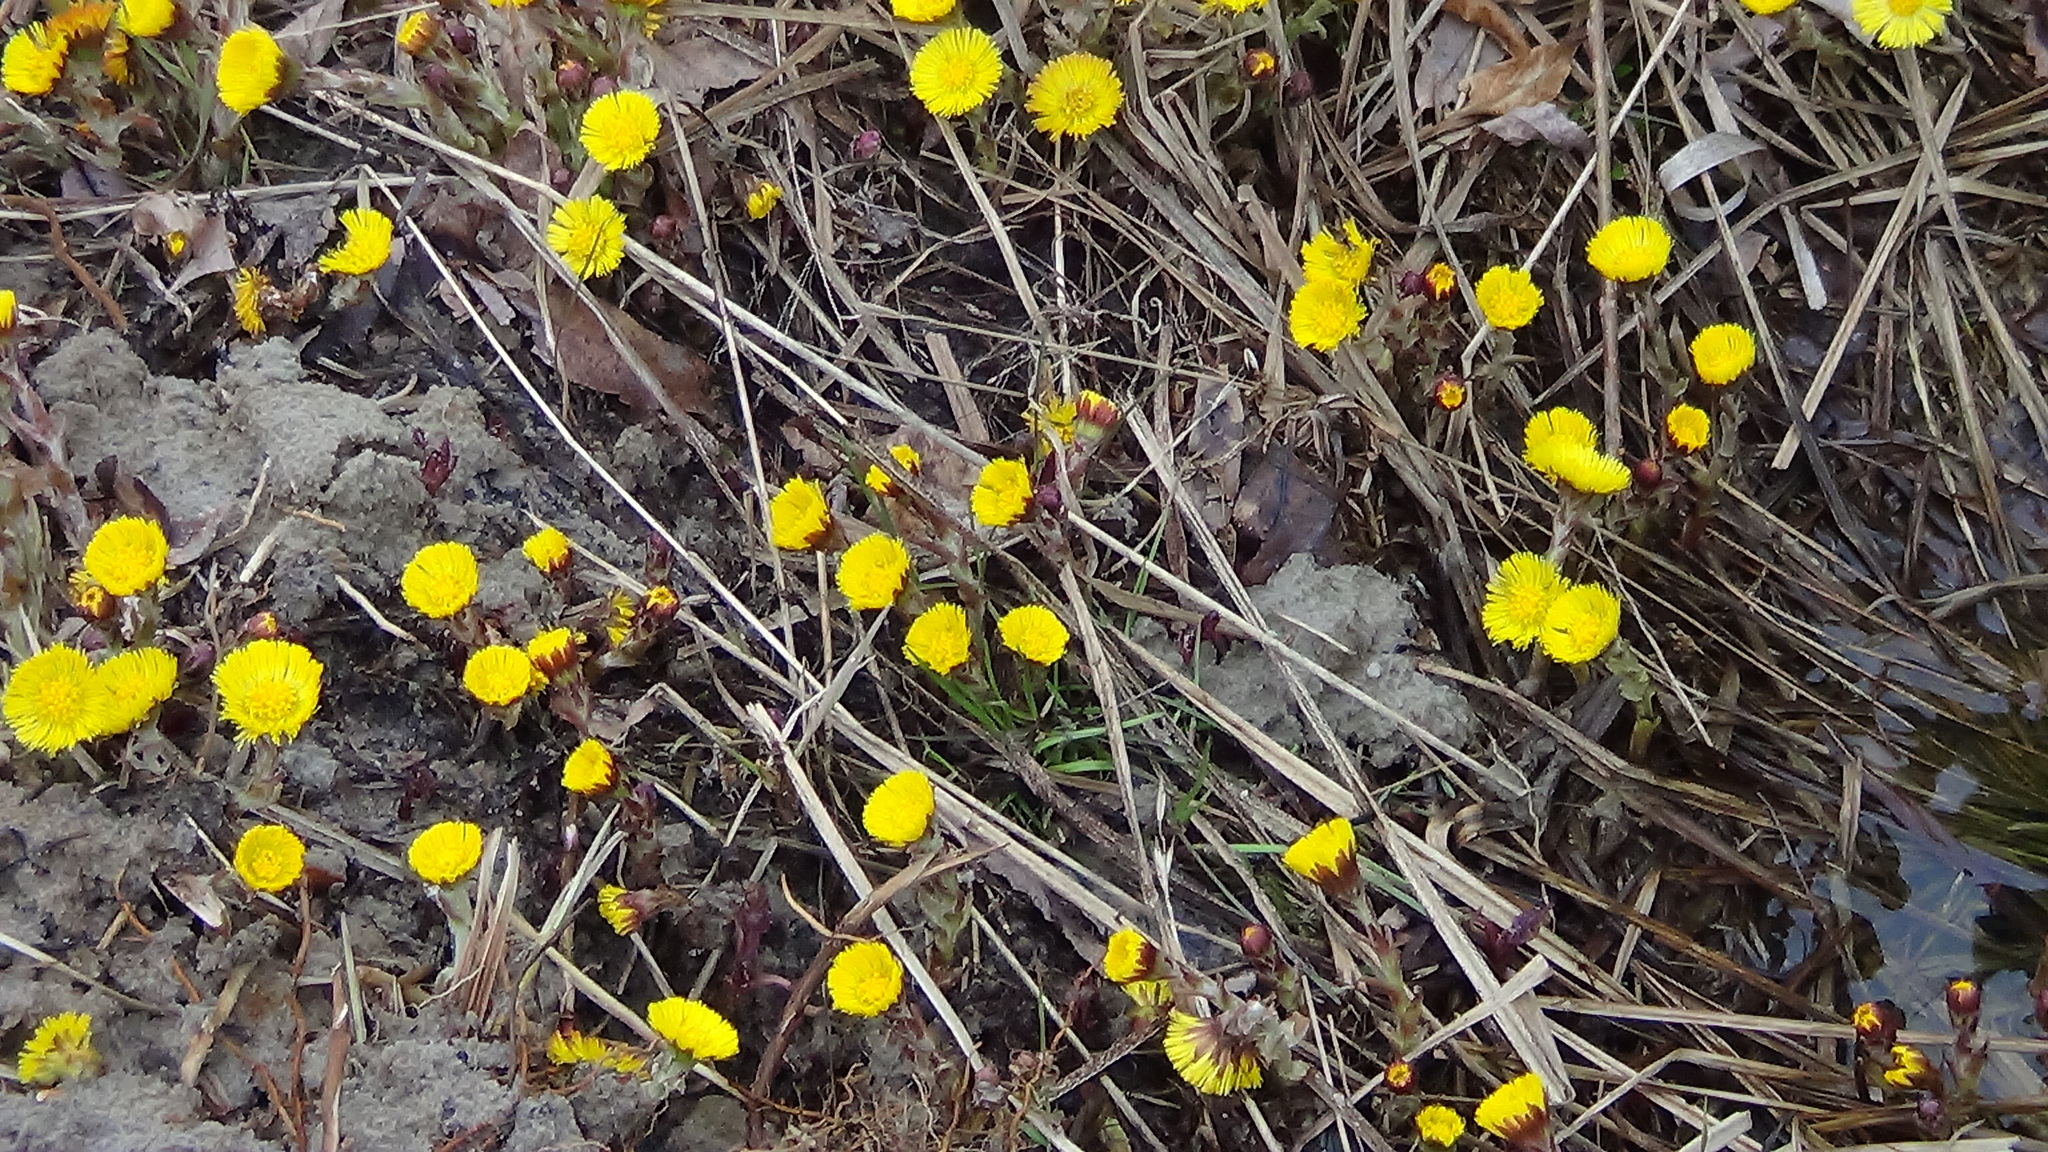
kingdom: Plantae
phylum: Tracheophyta
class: Magnoliopsida
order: Asterales
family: Asteraceae
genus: Tussilago
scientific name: Tussilago farfara
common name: Coltsfoot
